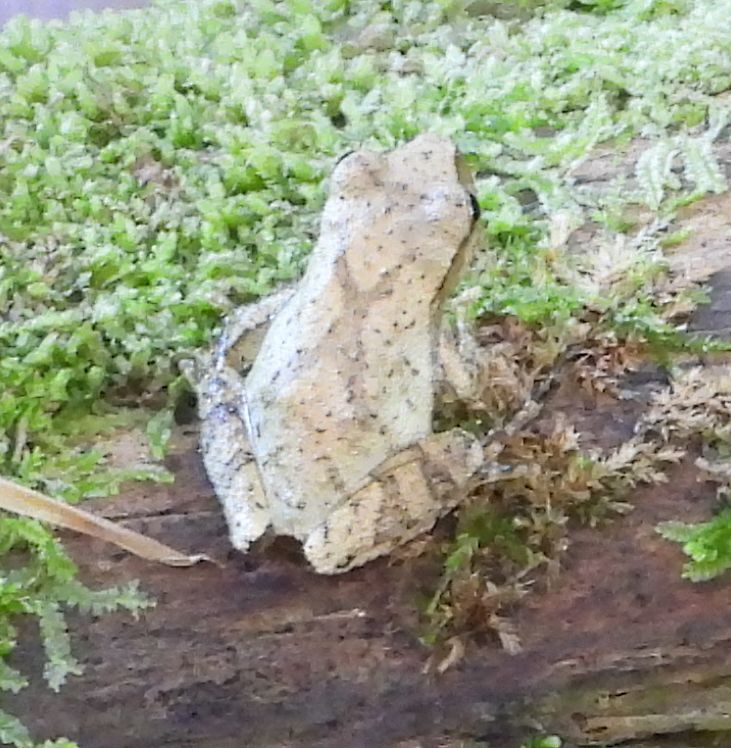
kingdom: Animalia
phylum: Chordata
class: Amphibia
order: Anura
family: Hylidae
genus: Pseudacris
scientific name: Pseudacris crucifer
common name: Spring peeper
